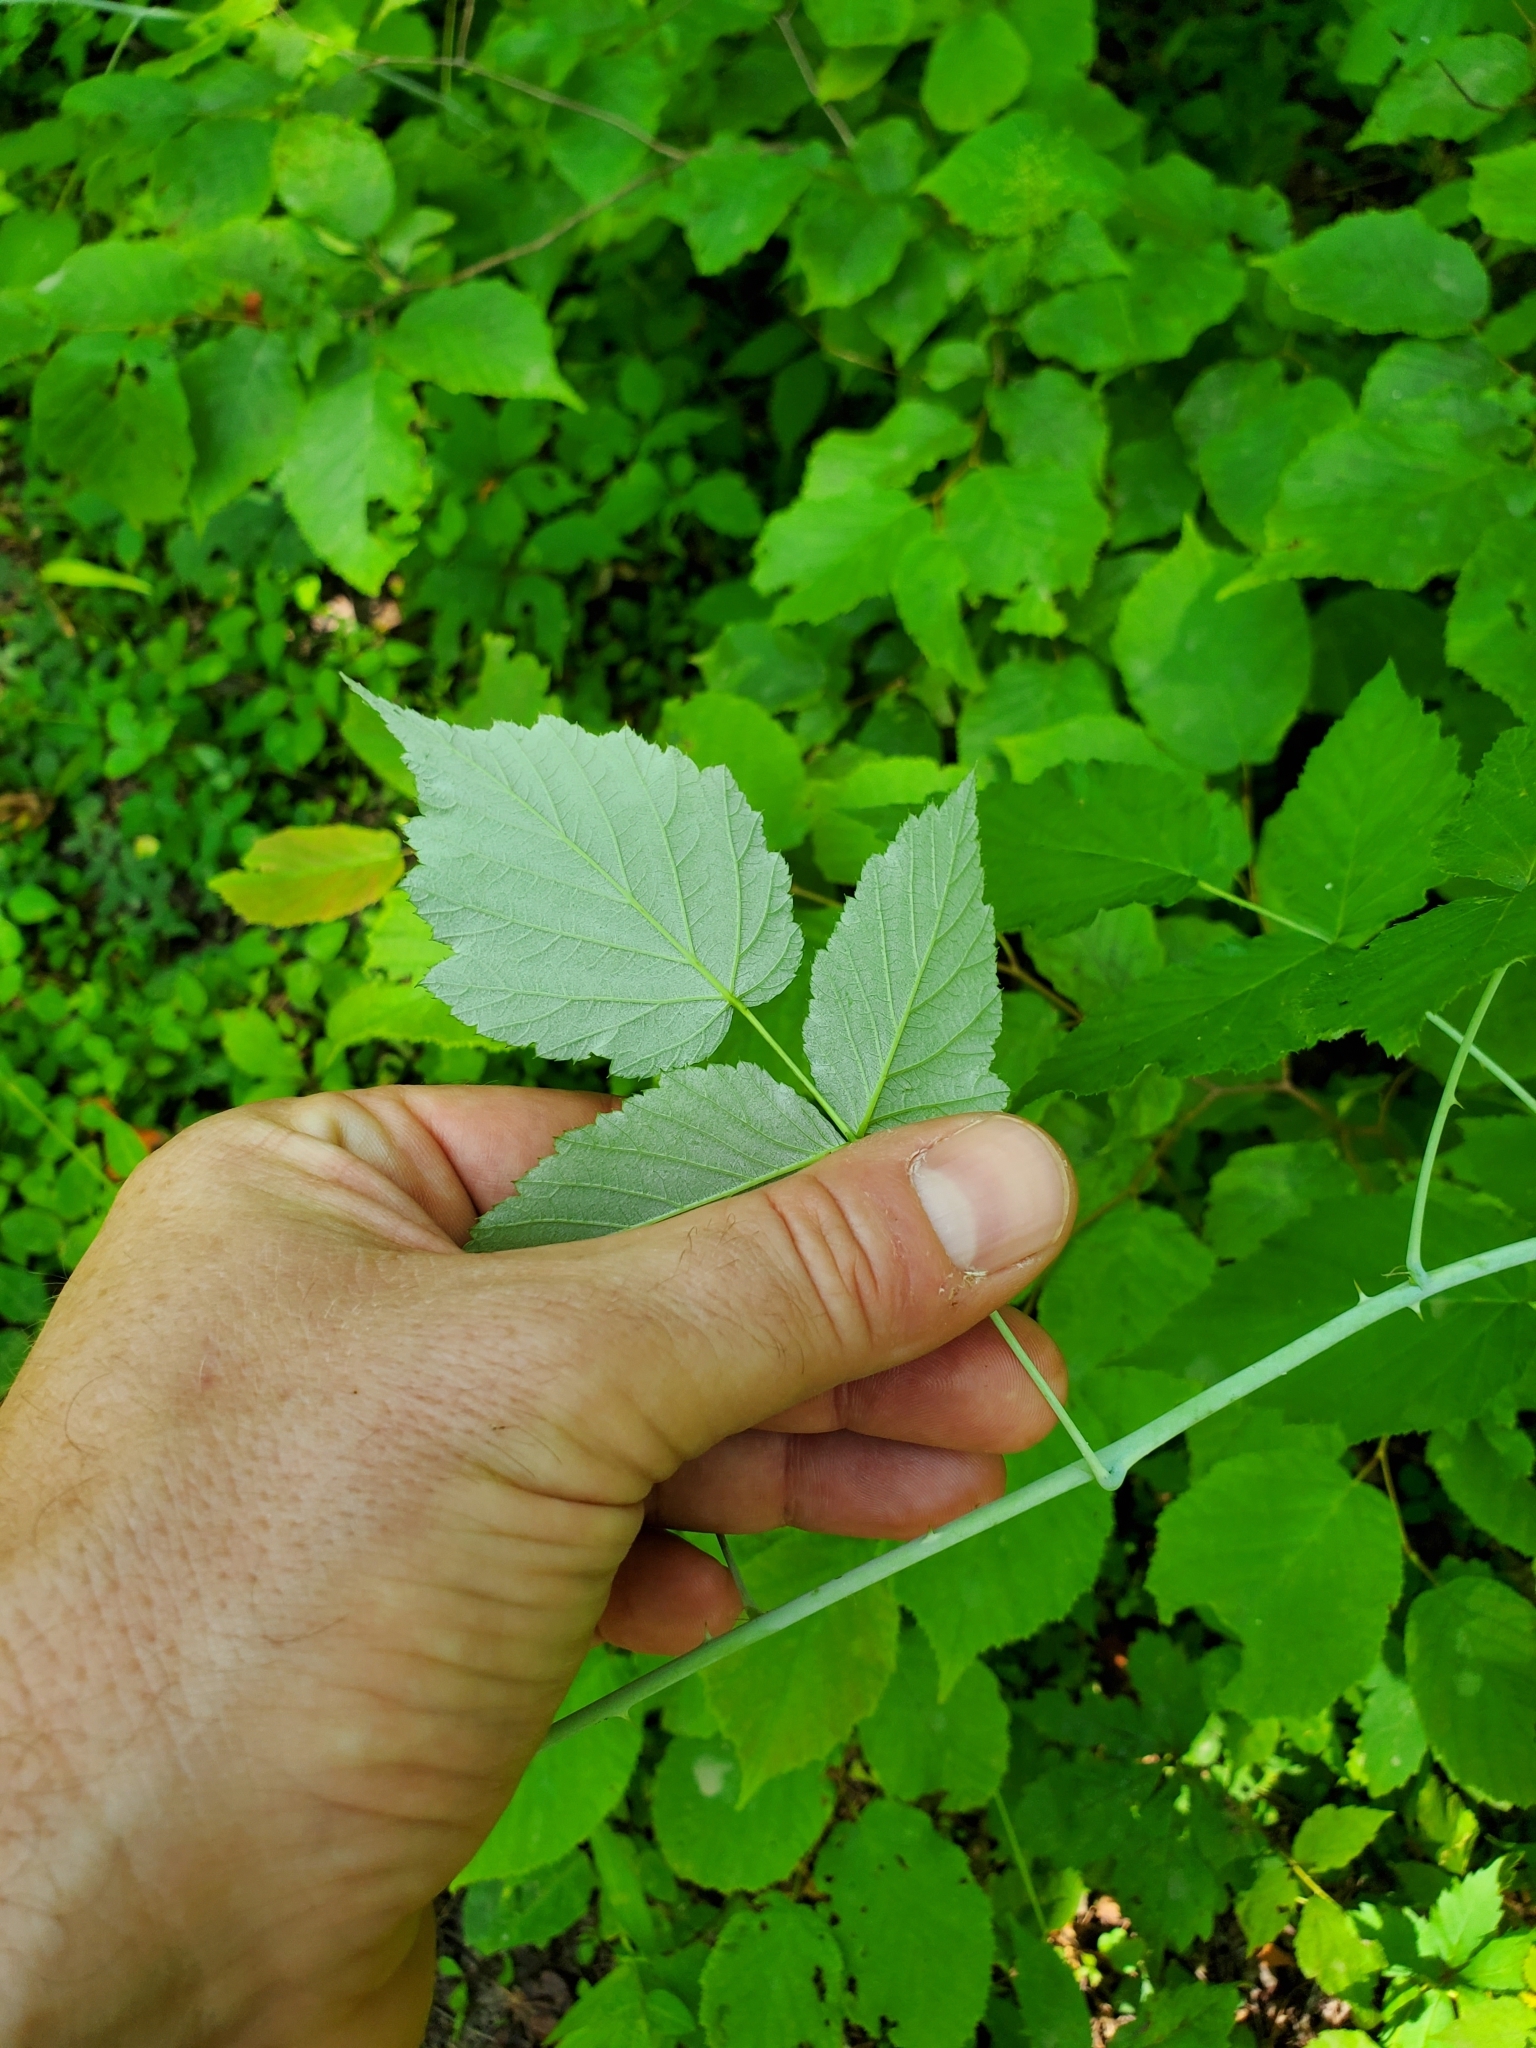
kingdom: Plantae
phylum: Tracheophyta
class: Magnoliopsida
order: Rosales
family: Rosaceae
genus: Rubus
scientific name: Rubus occidentalis
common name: Black raspberry
